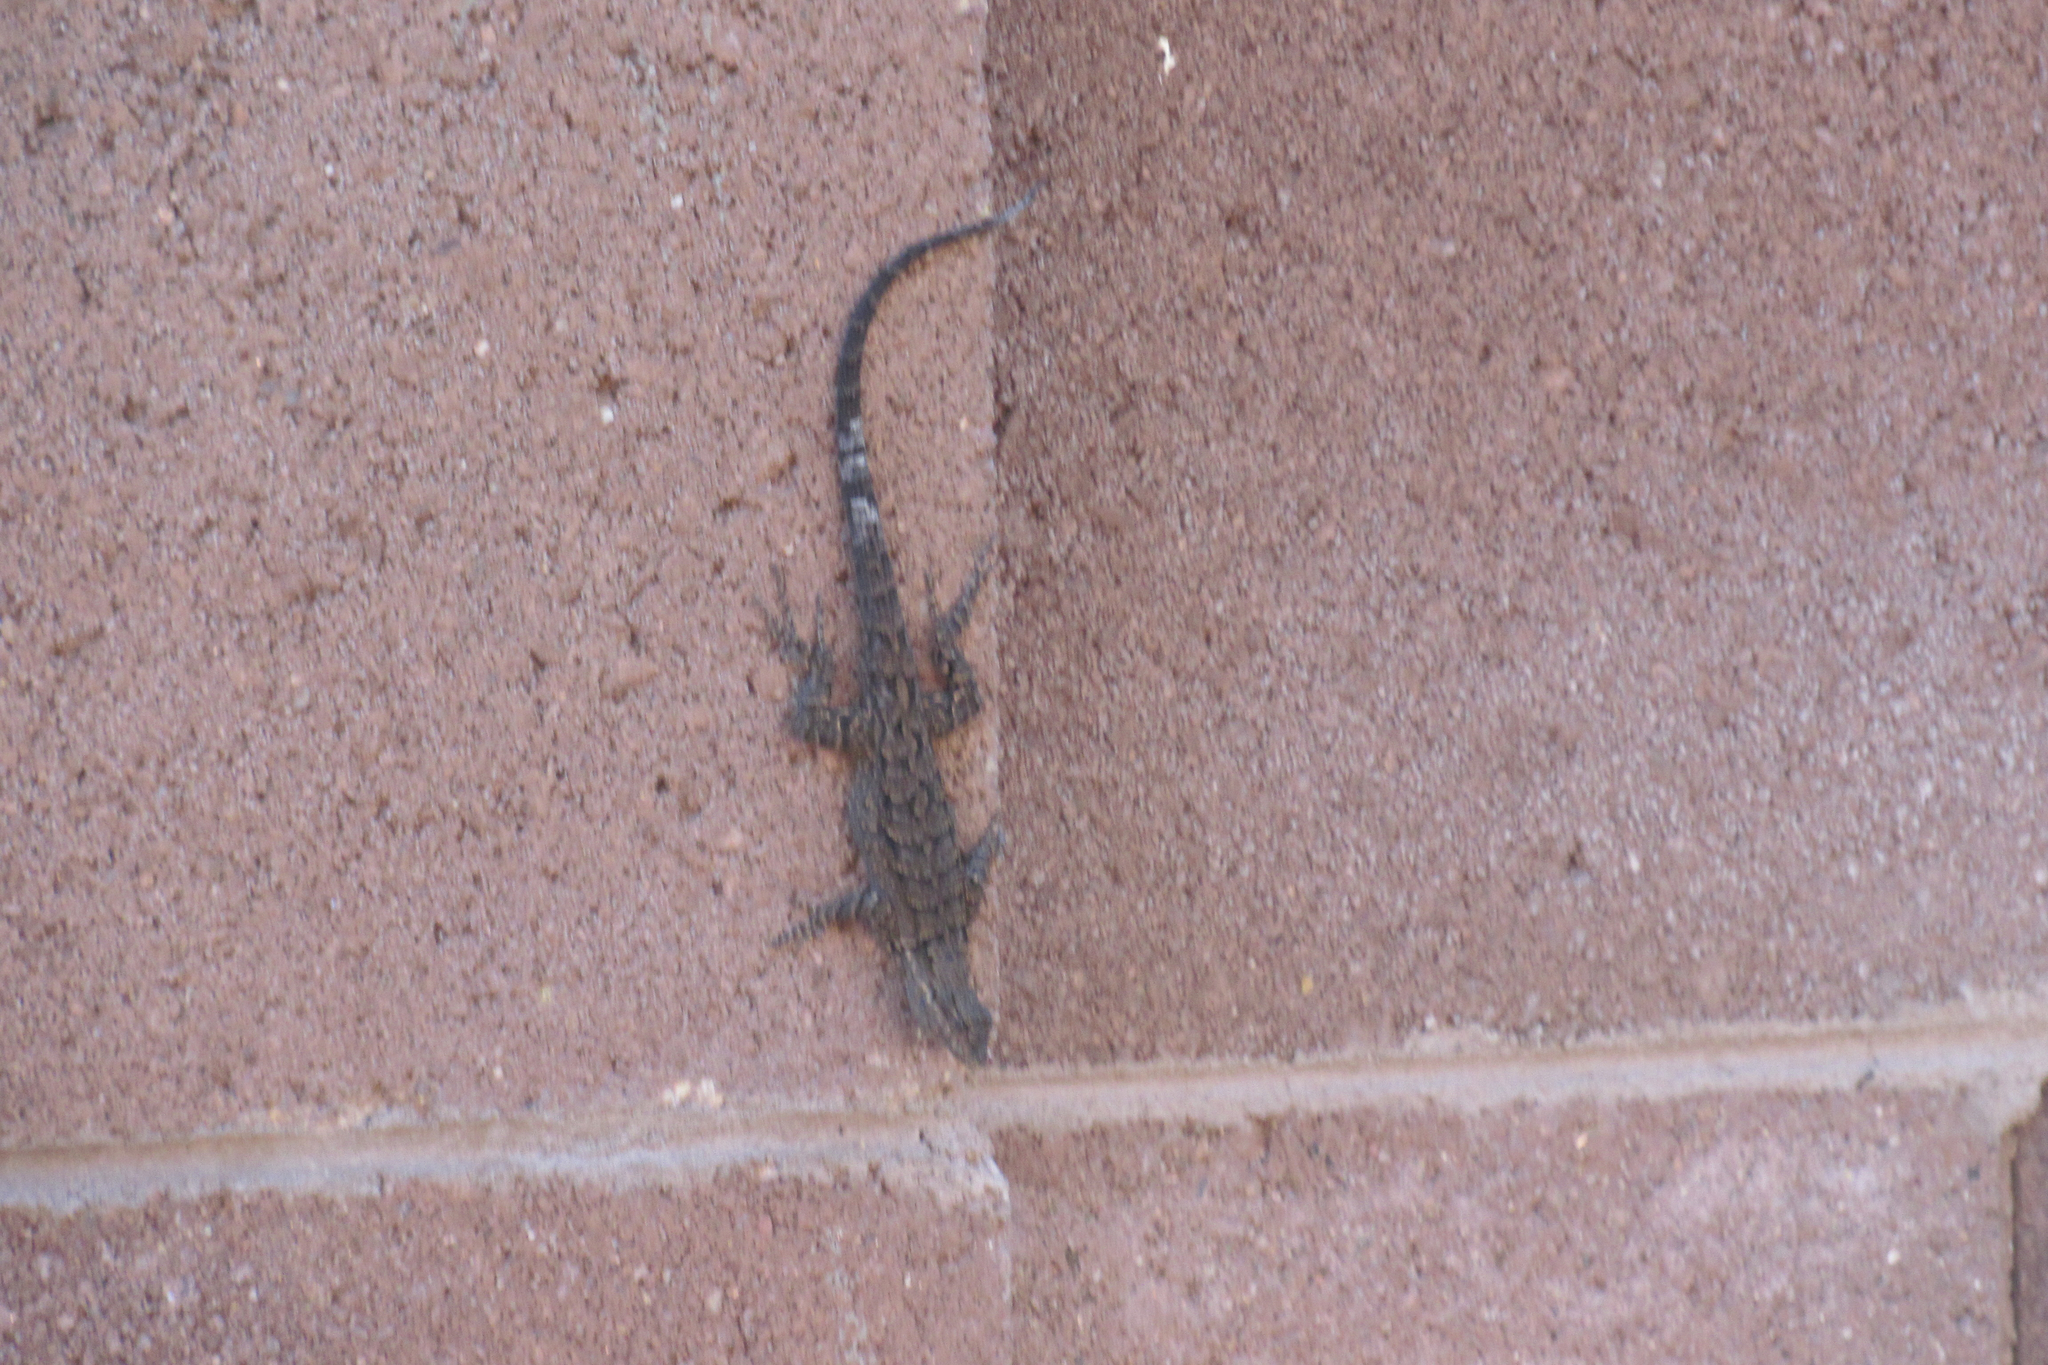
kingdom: Animalia
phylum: Chordata
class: Squamata
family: Phrynosomatidae
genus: Urosaurus
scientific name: Urosaurus ornatus
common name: Ornate tree lizard
